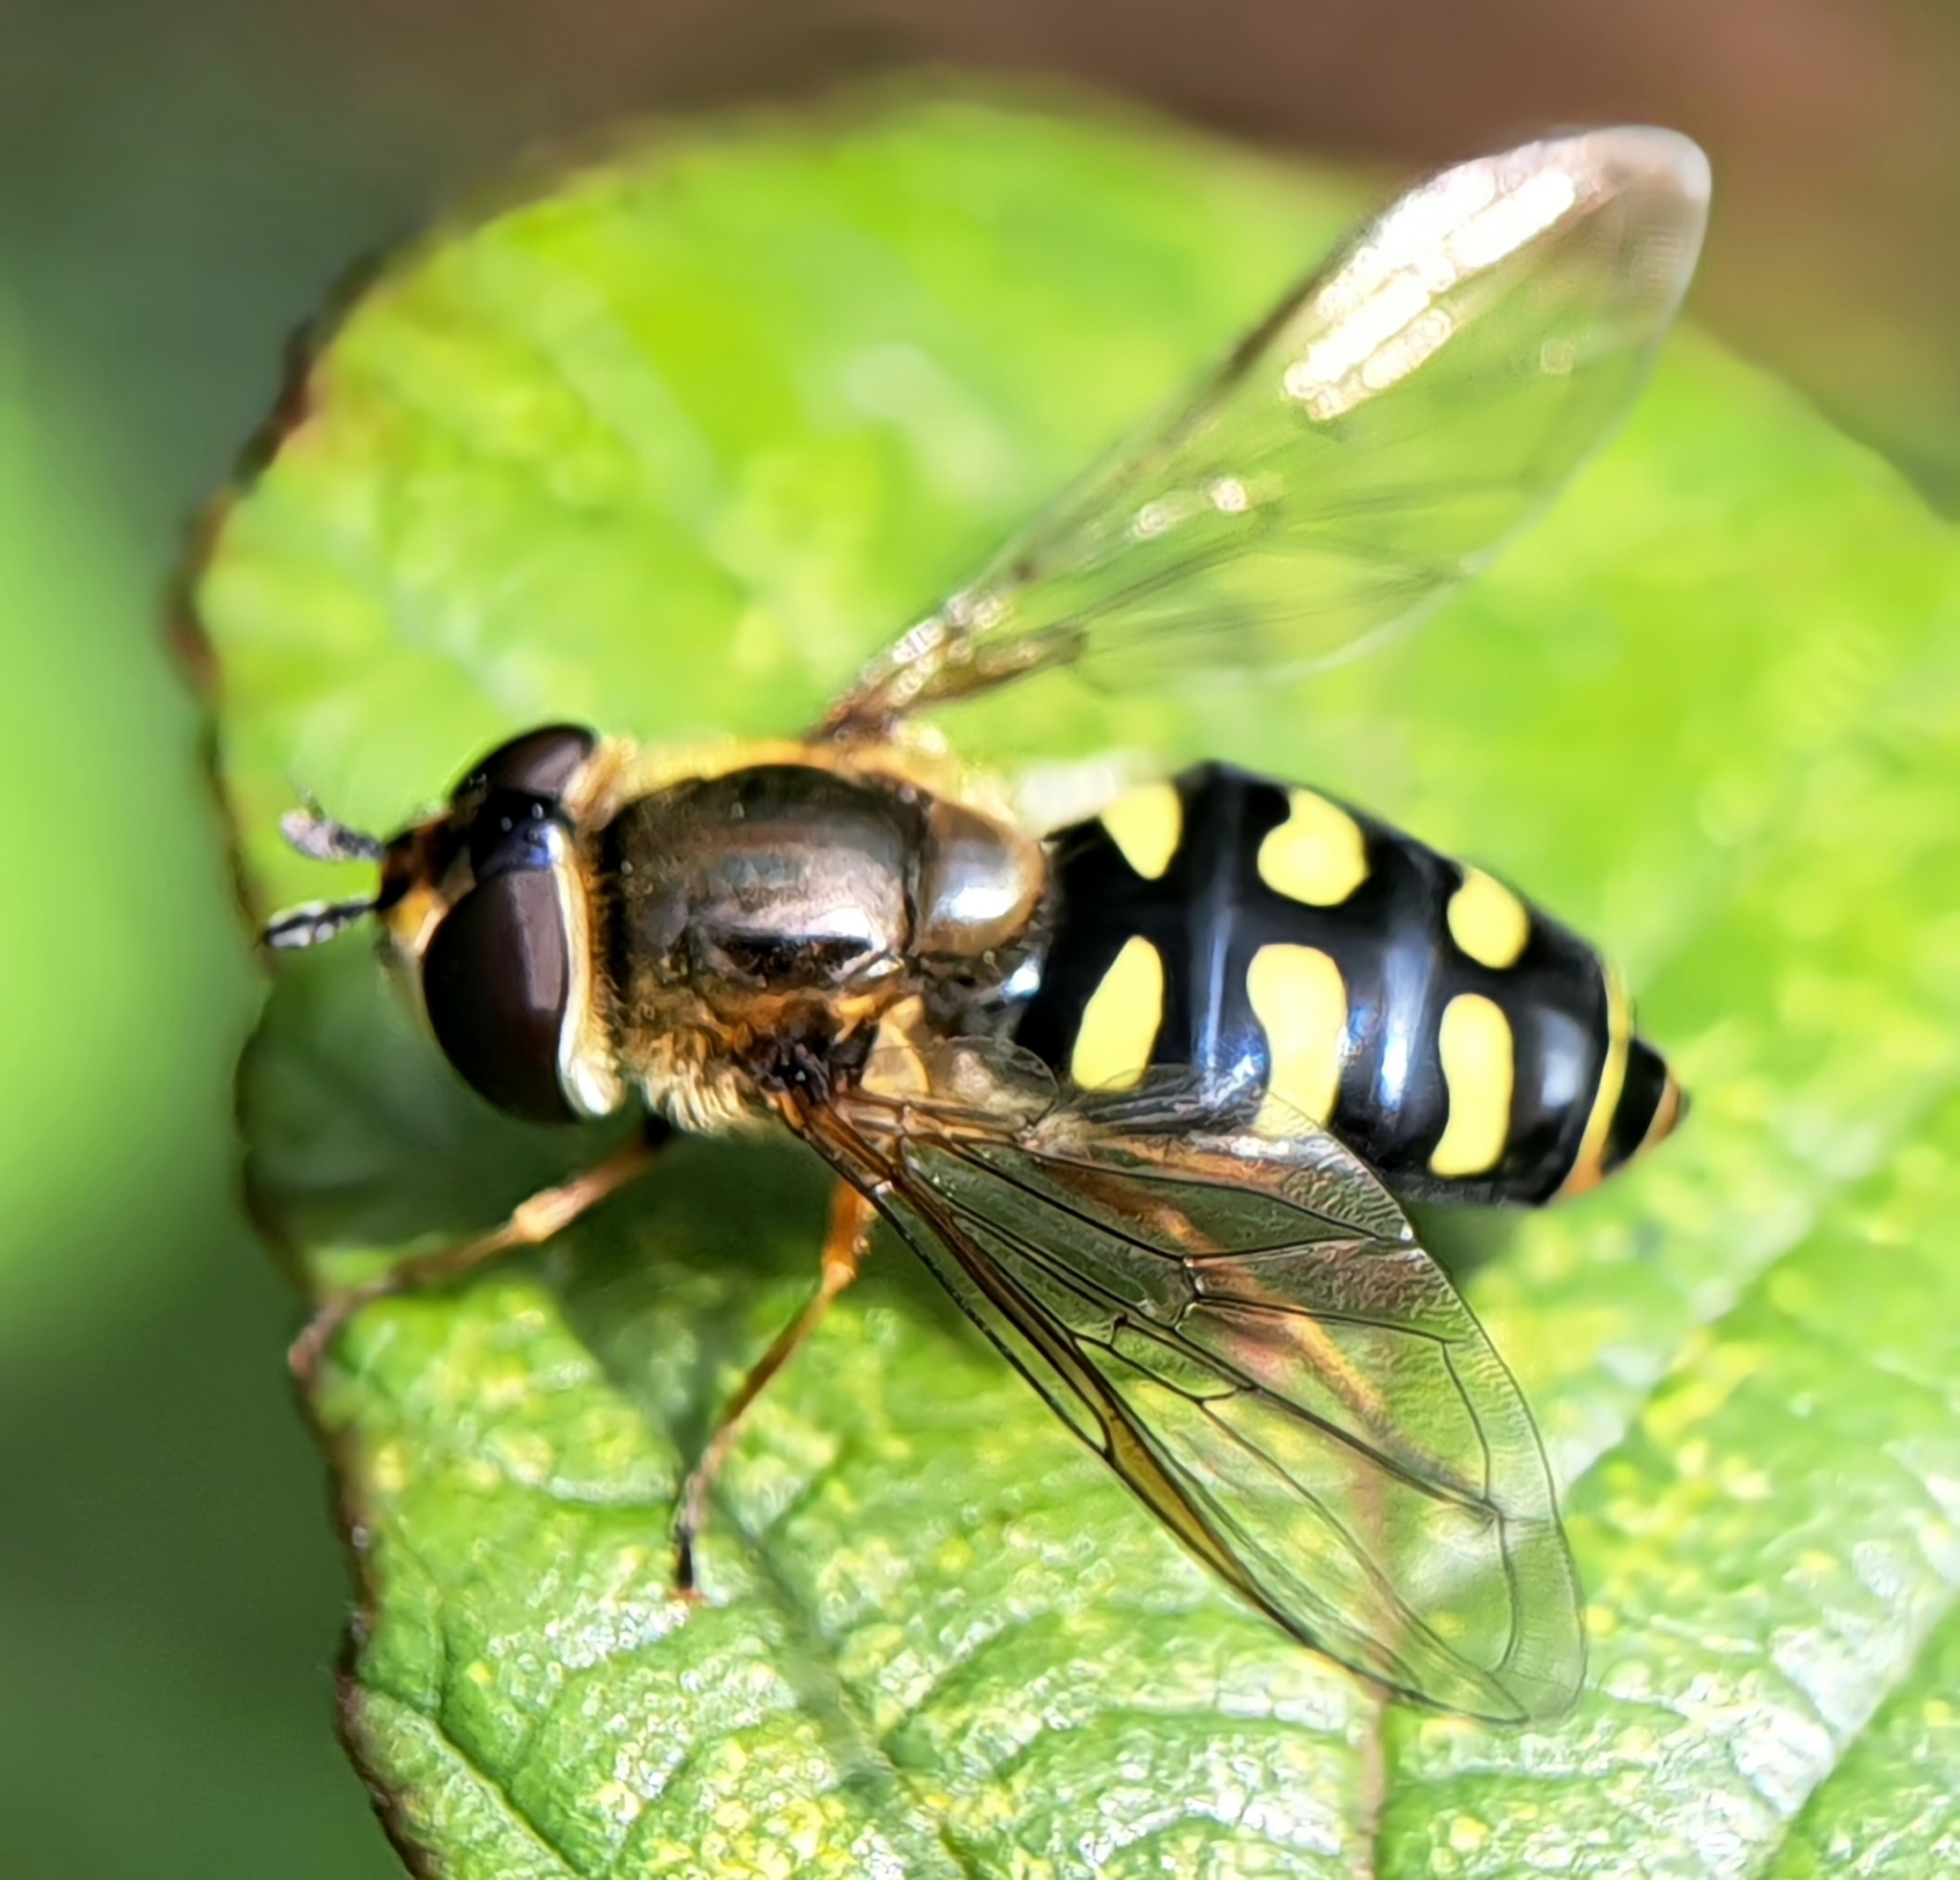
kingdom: Animalia
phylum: Arthropoda
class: Insecta
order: Diptera
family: Syrphidae
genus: Eupeodes
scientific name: Eupeodes luniger
